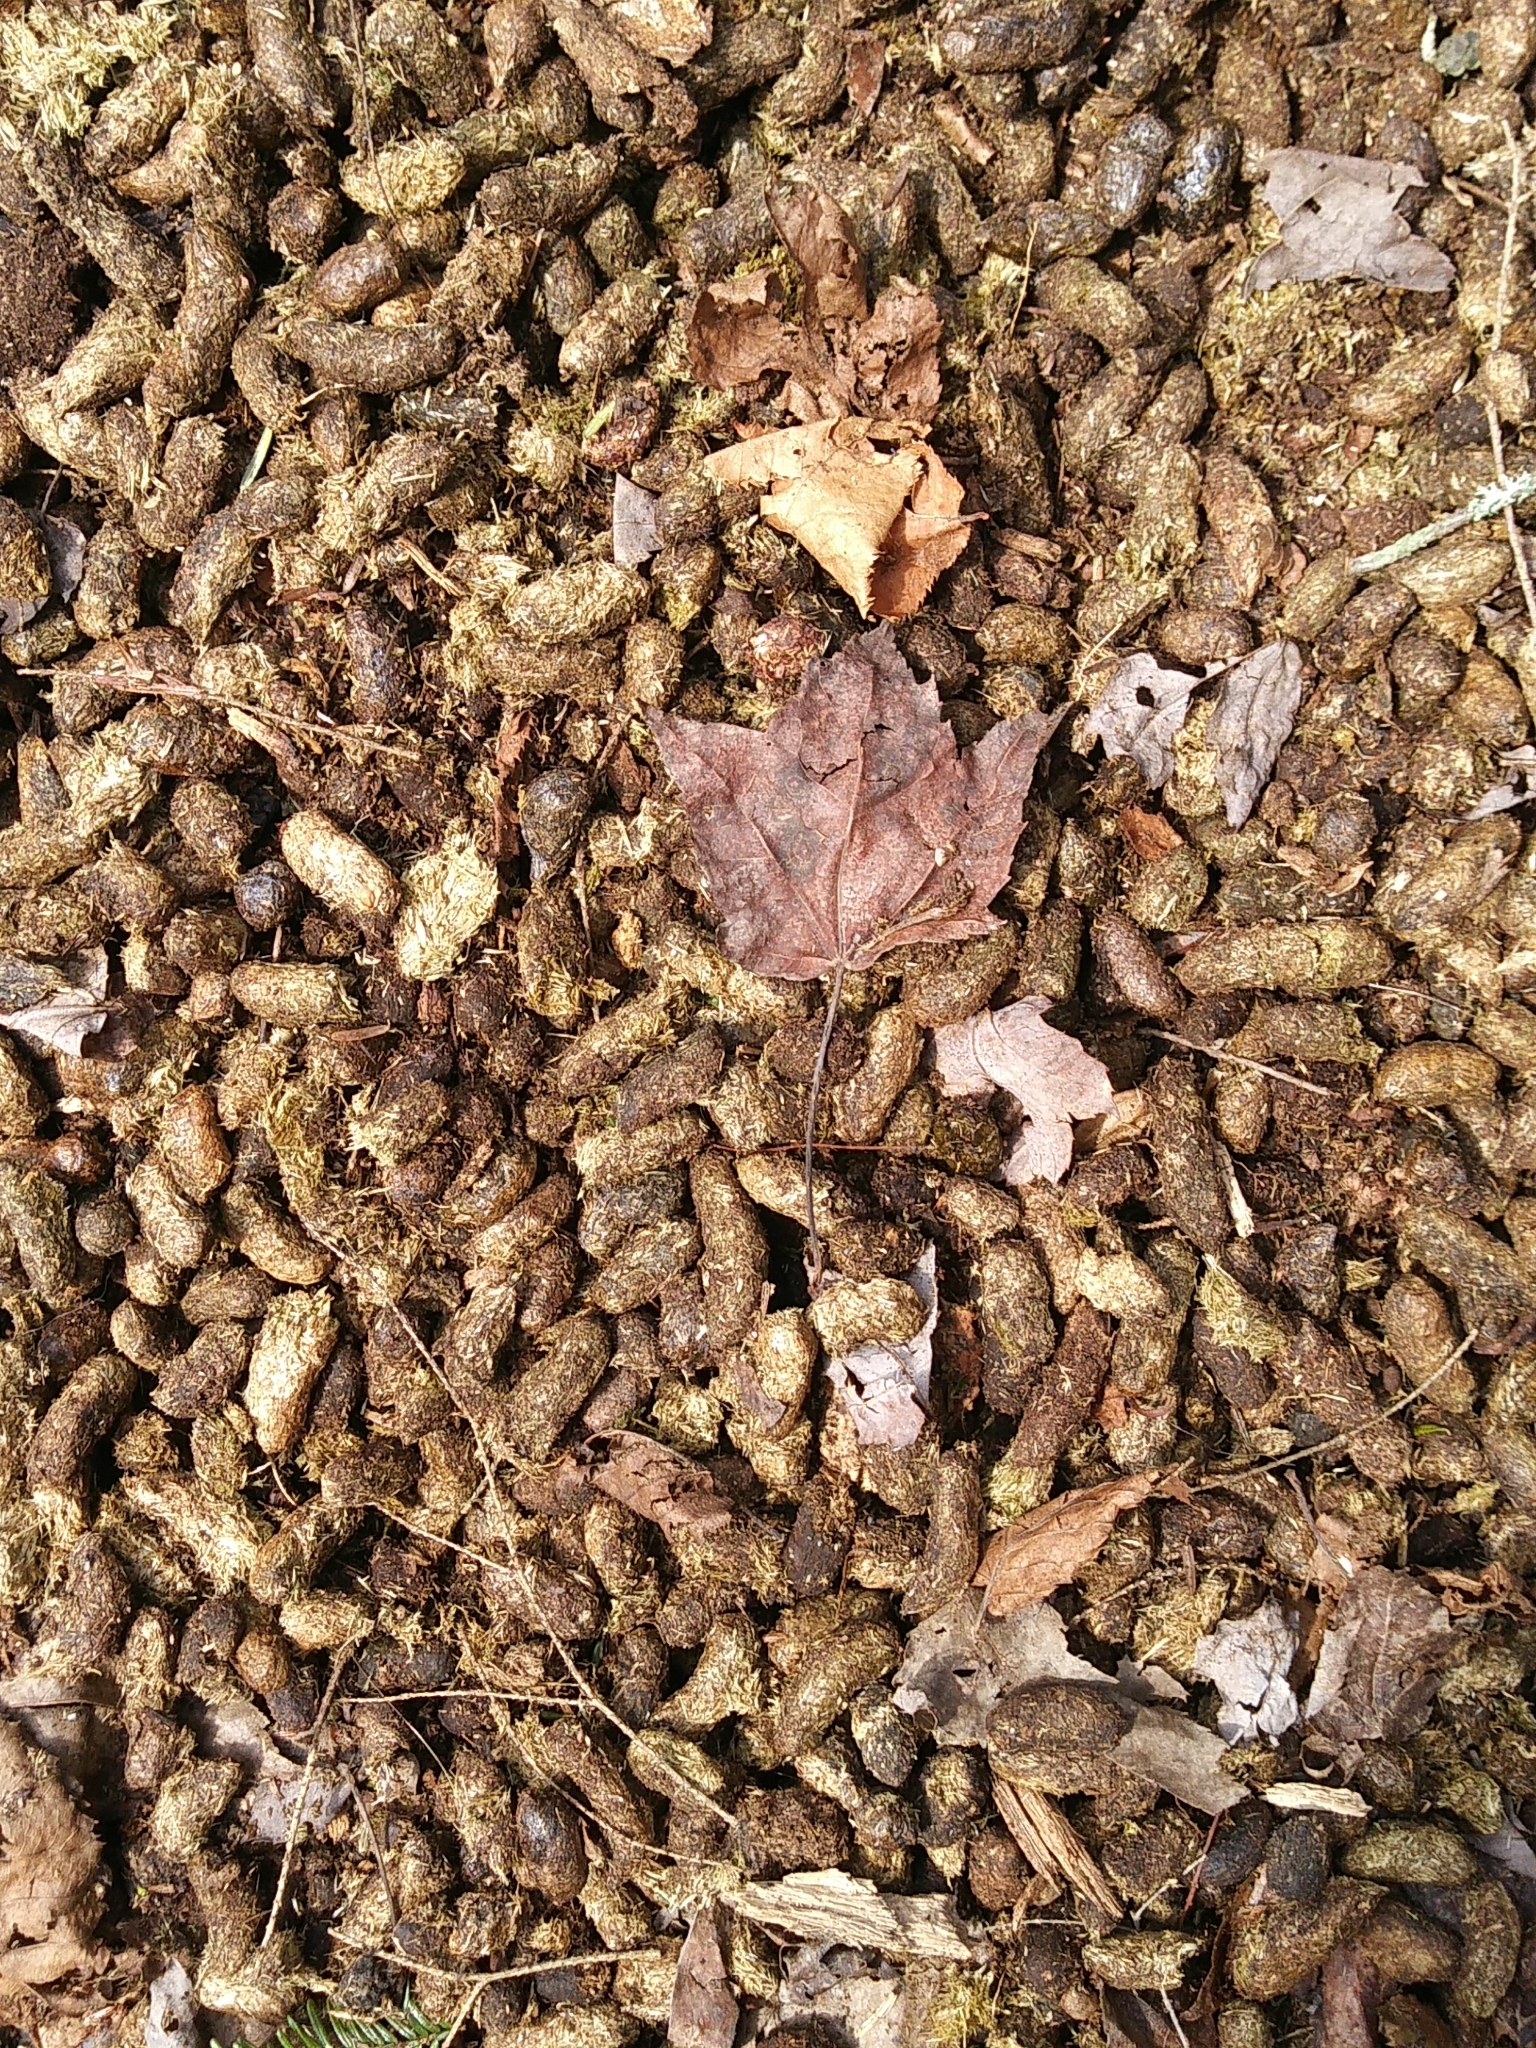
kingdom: Animalia
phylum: Chordata
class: Mammalia
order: Rodentia
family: Erethizontidae
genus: Erethizon
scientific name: Erethizon dorsatus
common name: North american porcupine
